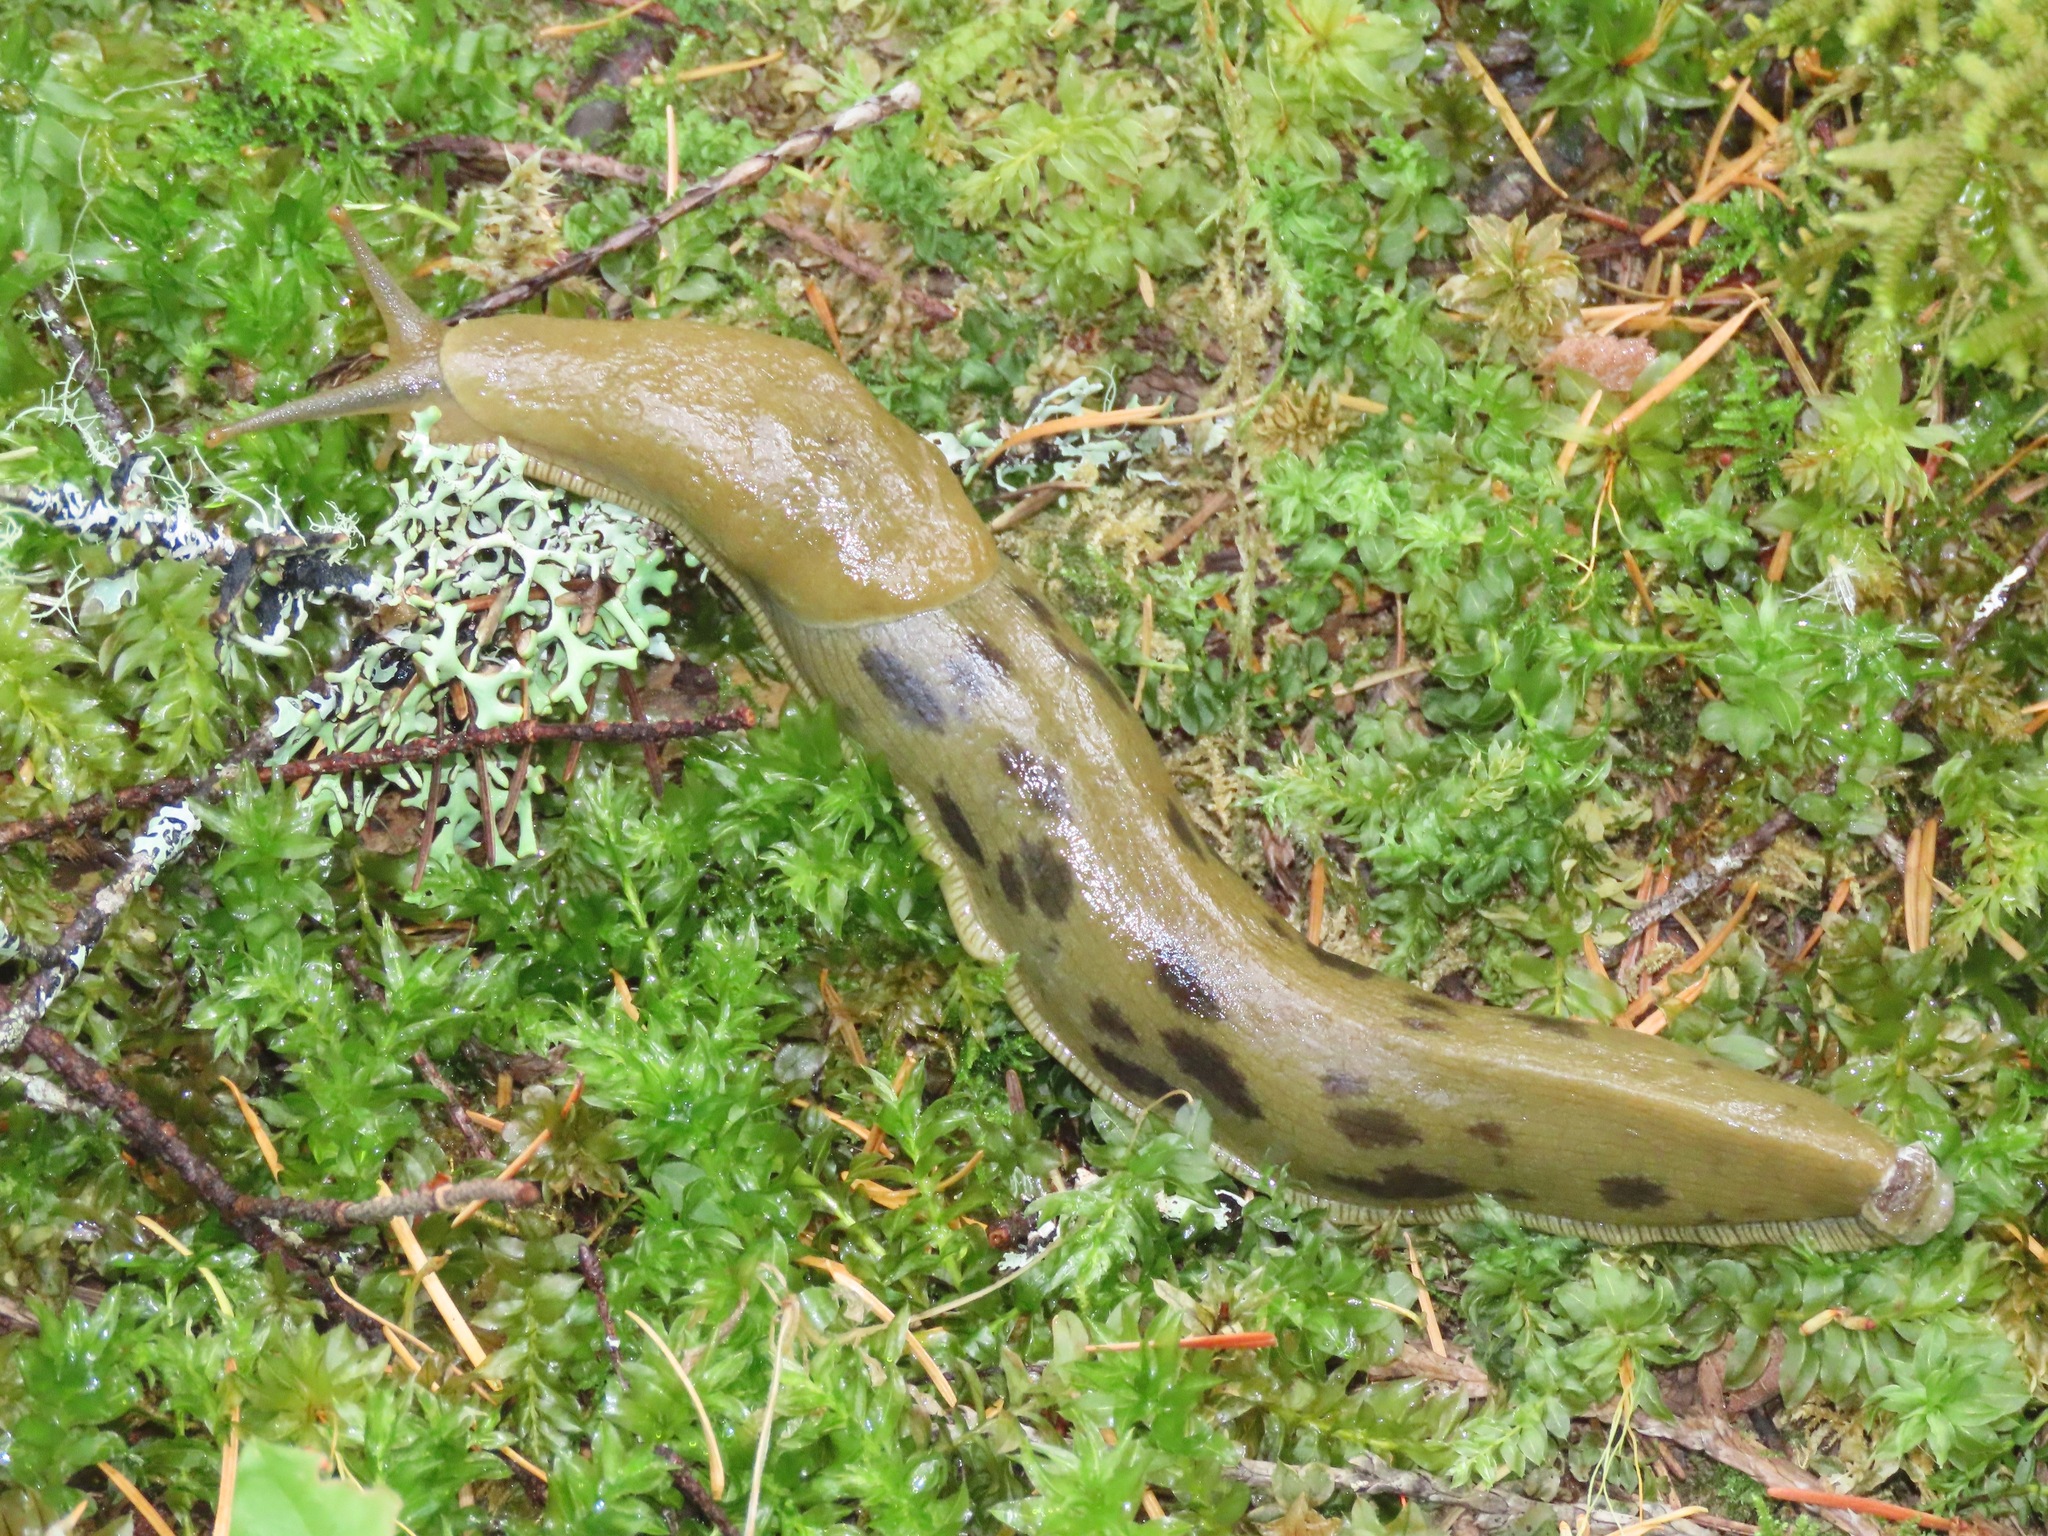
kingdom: Animalia
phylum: Mollusca
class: Gastropoda
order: Stylommatophora
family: Ariolimacidae
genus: Ariolimax
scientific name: Ariolimax columbianus
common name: Pacific banana slug
